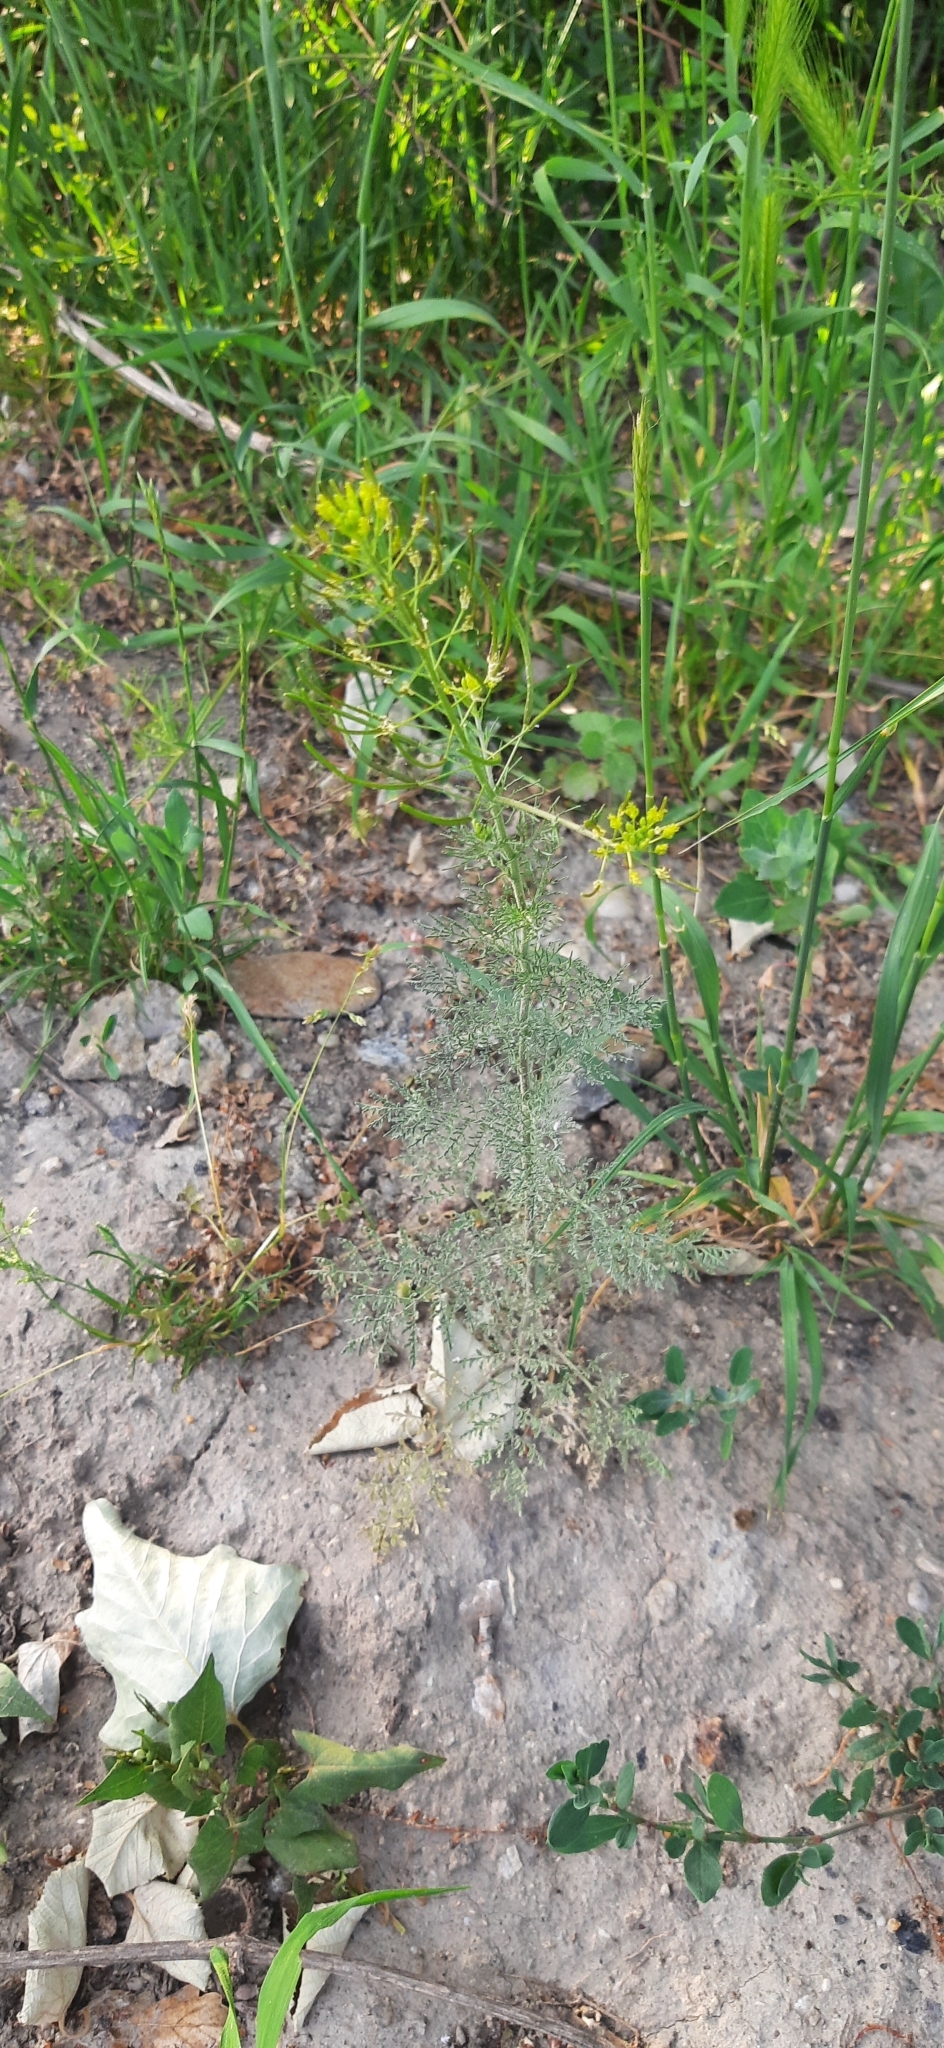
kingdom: Plantae
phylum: Tracheophyta
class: Magnoliopsida
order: Brassicales
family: Brassicaceae
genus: Descurainia
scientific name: Descurainia sophia
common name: Flixweed
